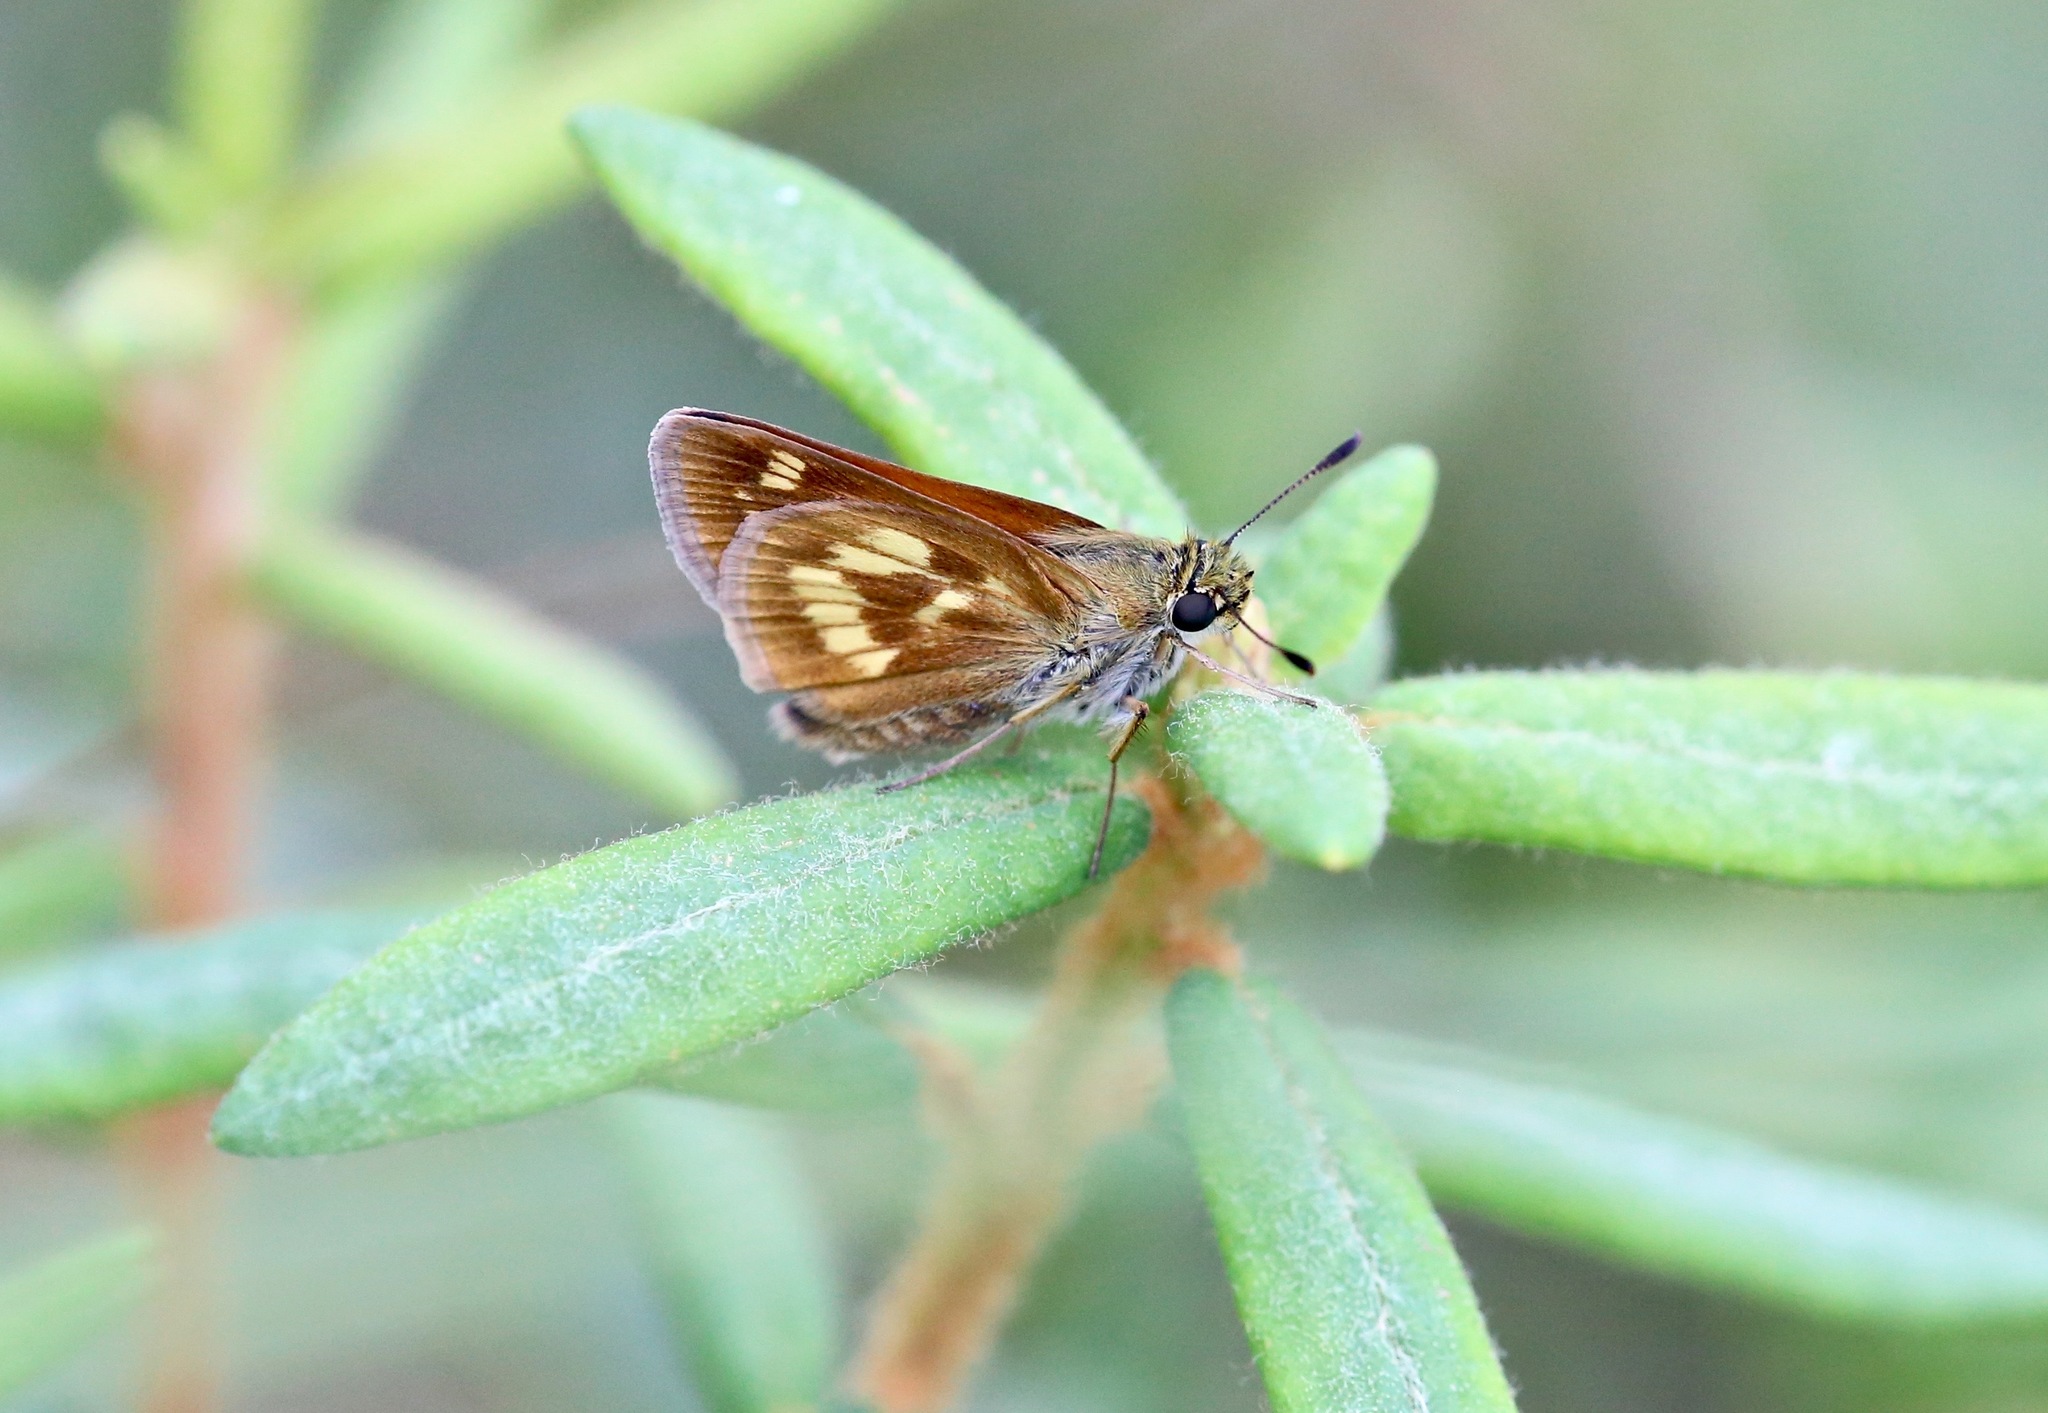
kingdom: Animalia
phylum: Arthropoda
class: Insecta
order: Lepidoptera
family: Hesperiidae
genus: Polites
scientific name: Polites mystic
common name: Long dash
